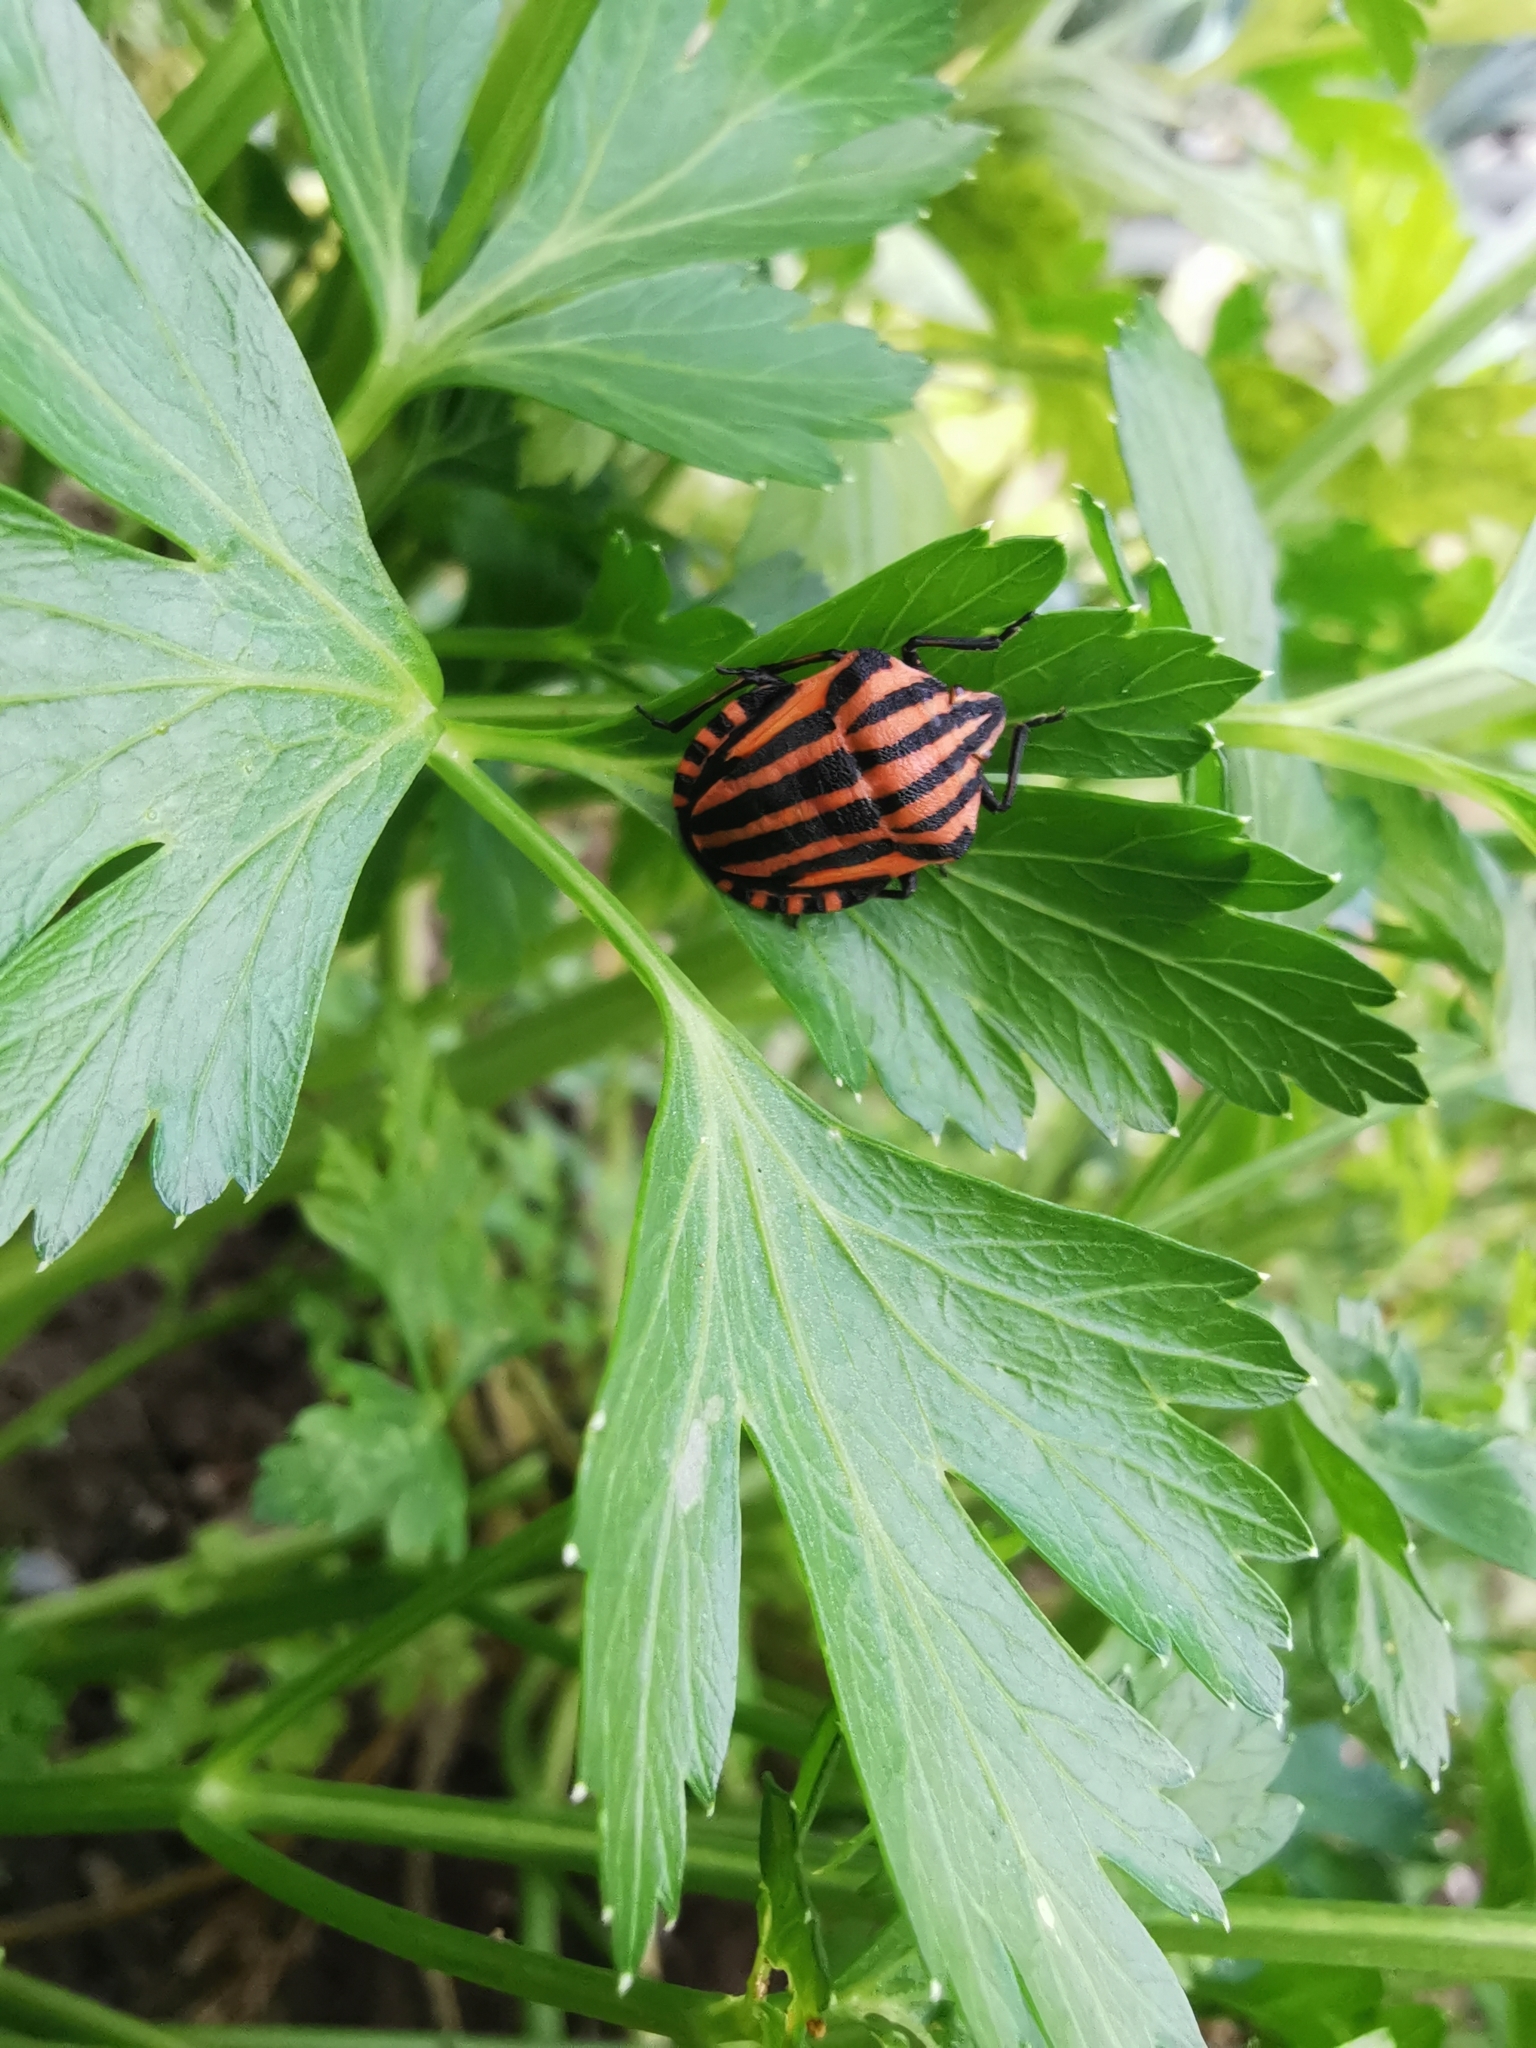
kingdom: Animalia
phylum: Arthropoda
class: Insecta
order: Hemiptera
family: Pentatomidae
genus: Graphosoma
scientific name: Graphosoma italicum
